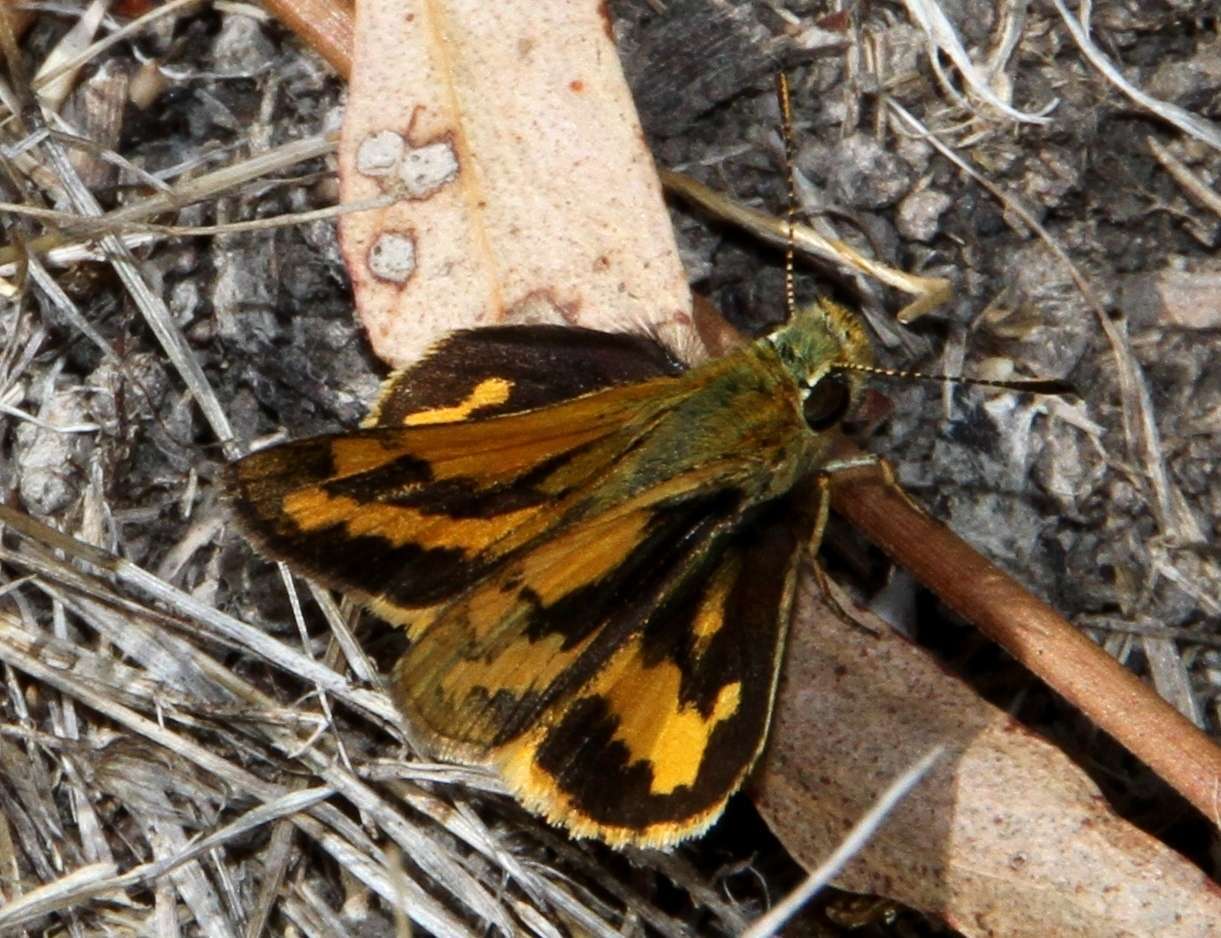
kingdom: Animalia
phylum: Arthropoda
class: Insecta
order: Lepidoptera
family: Hesperiidae
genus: Ocybadistes
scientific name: Ocybadistes walkeri
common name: Yellow-banded dart
